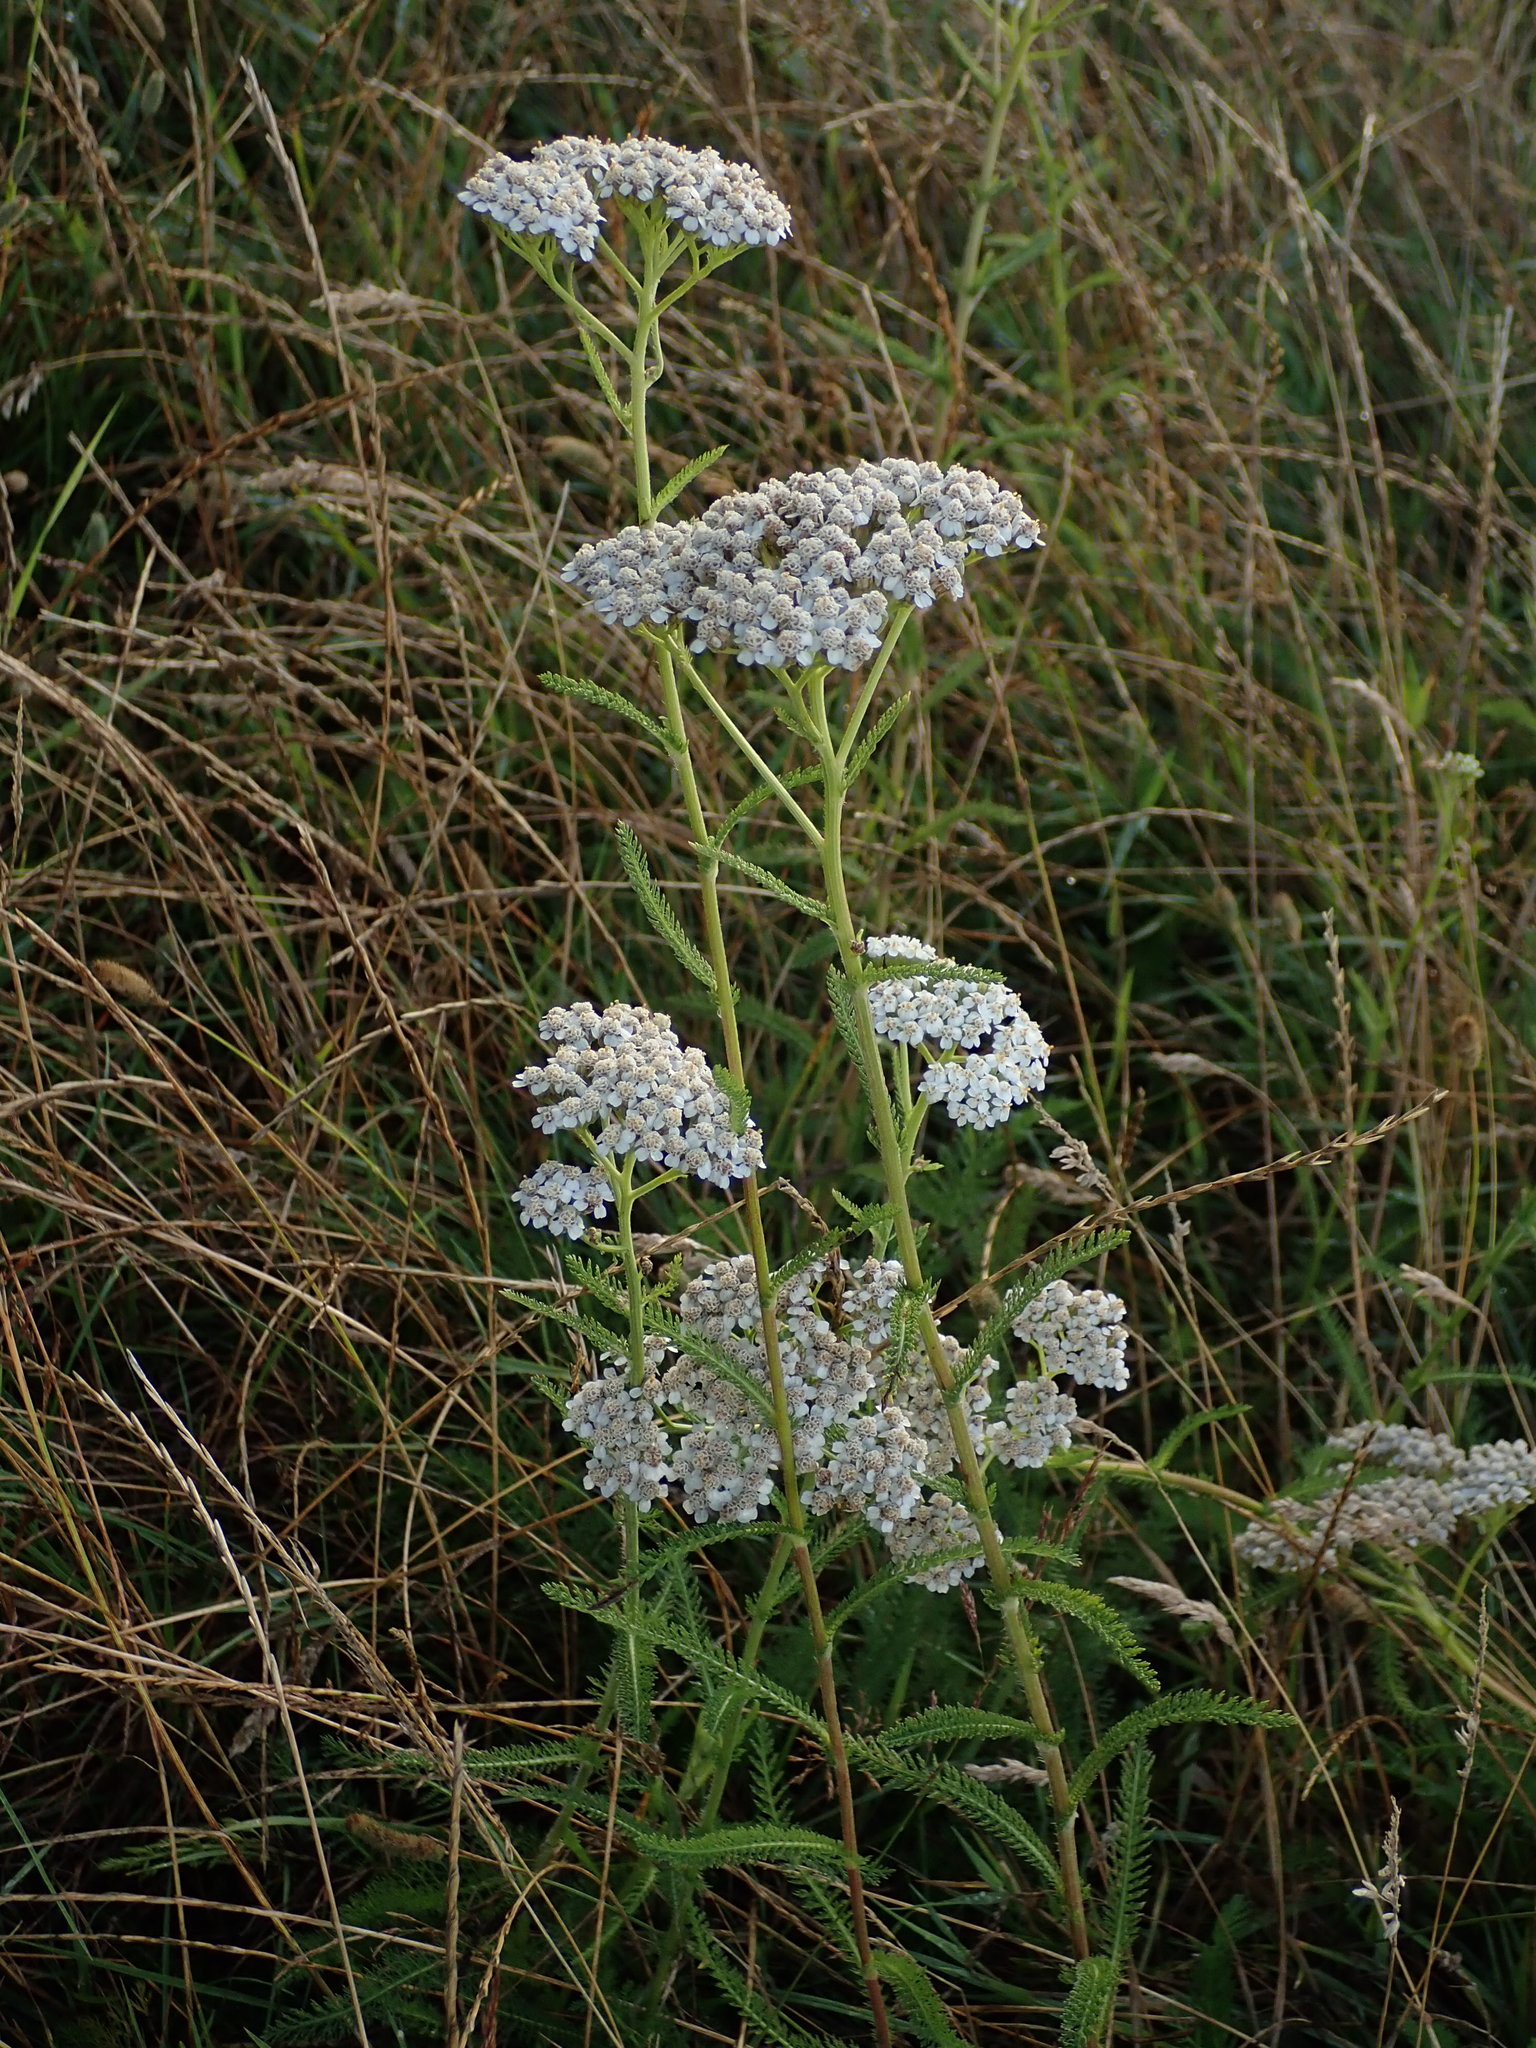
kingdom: Plantae
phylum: Tracheophyta
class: Magnoliopsida
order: Asterales
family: Asteraceae
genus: Achillea
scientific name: Achillea millefolium
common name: Yarrow
